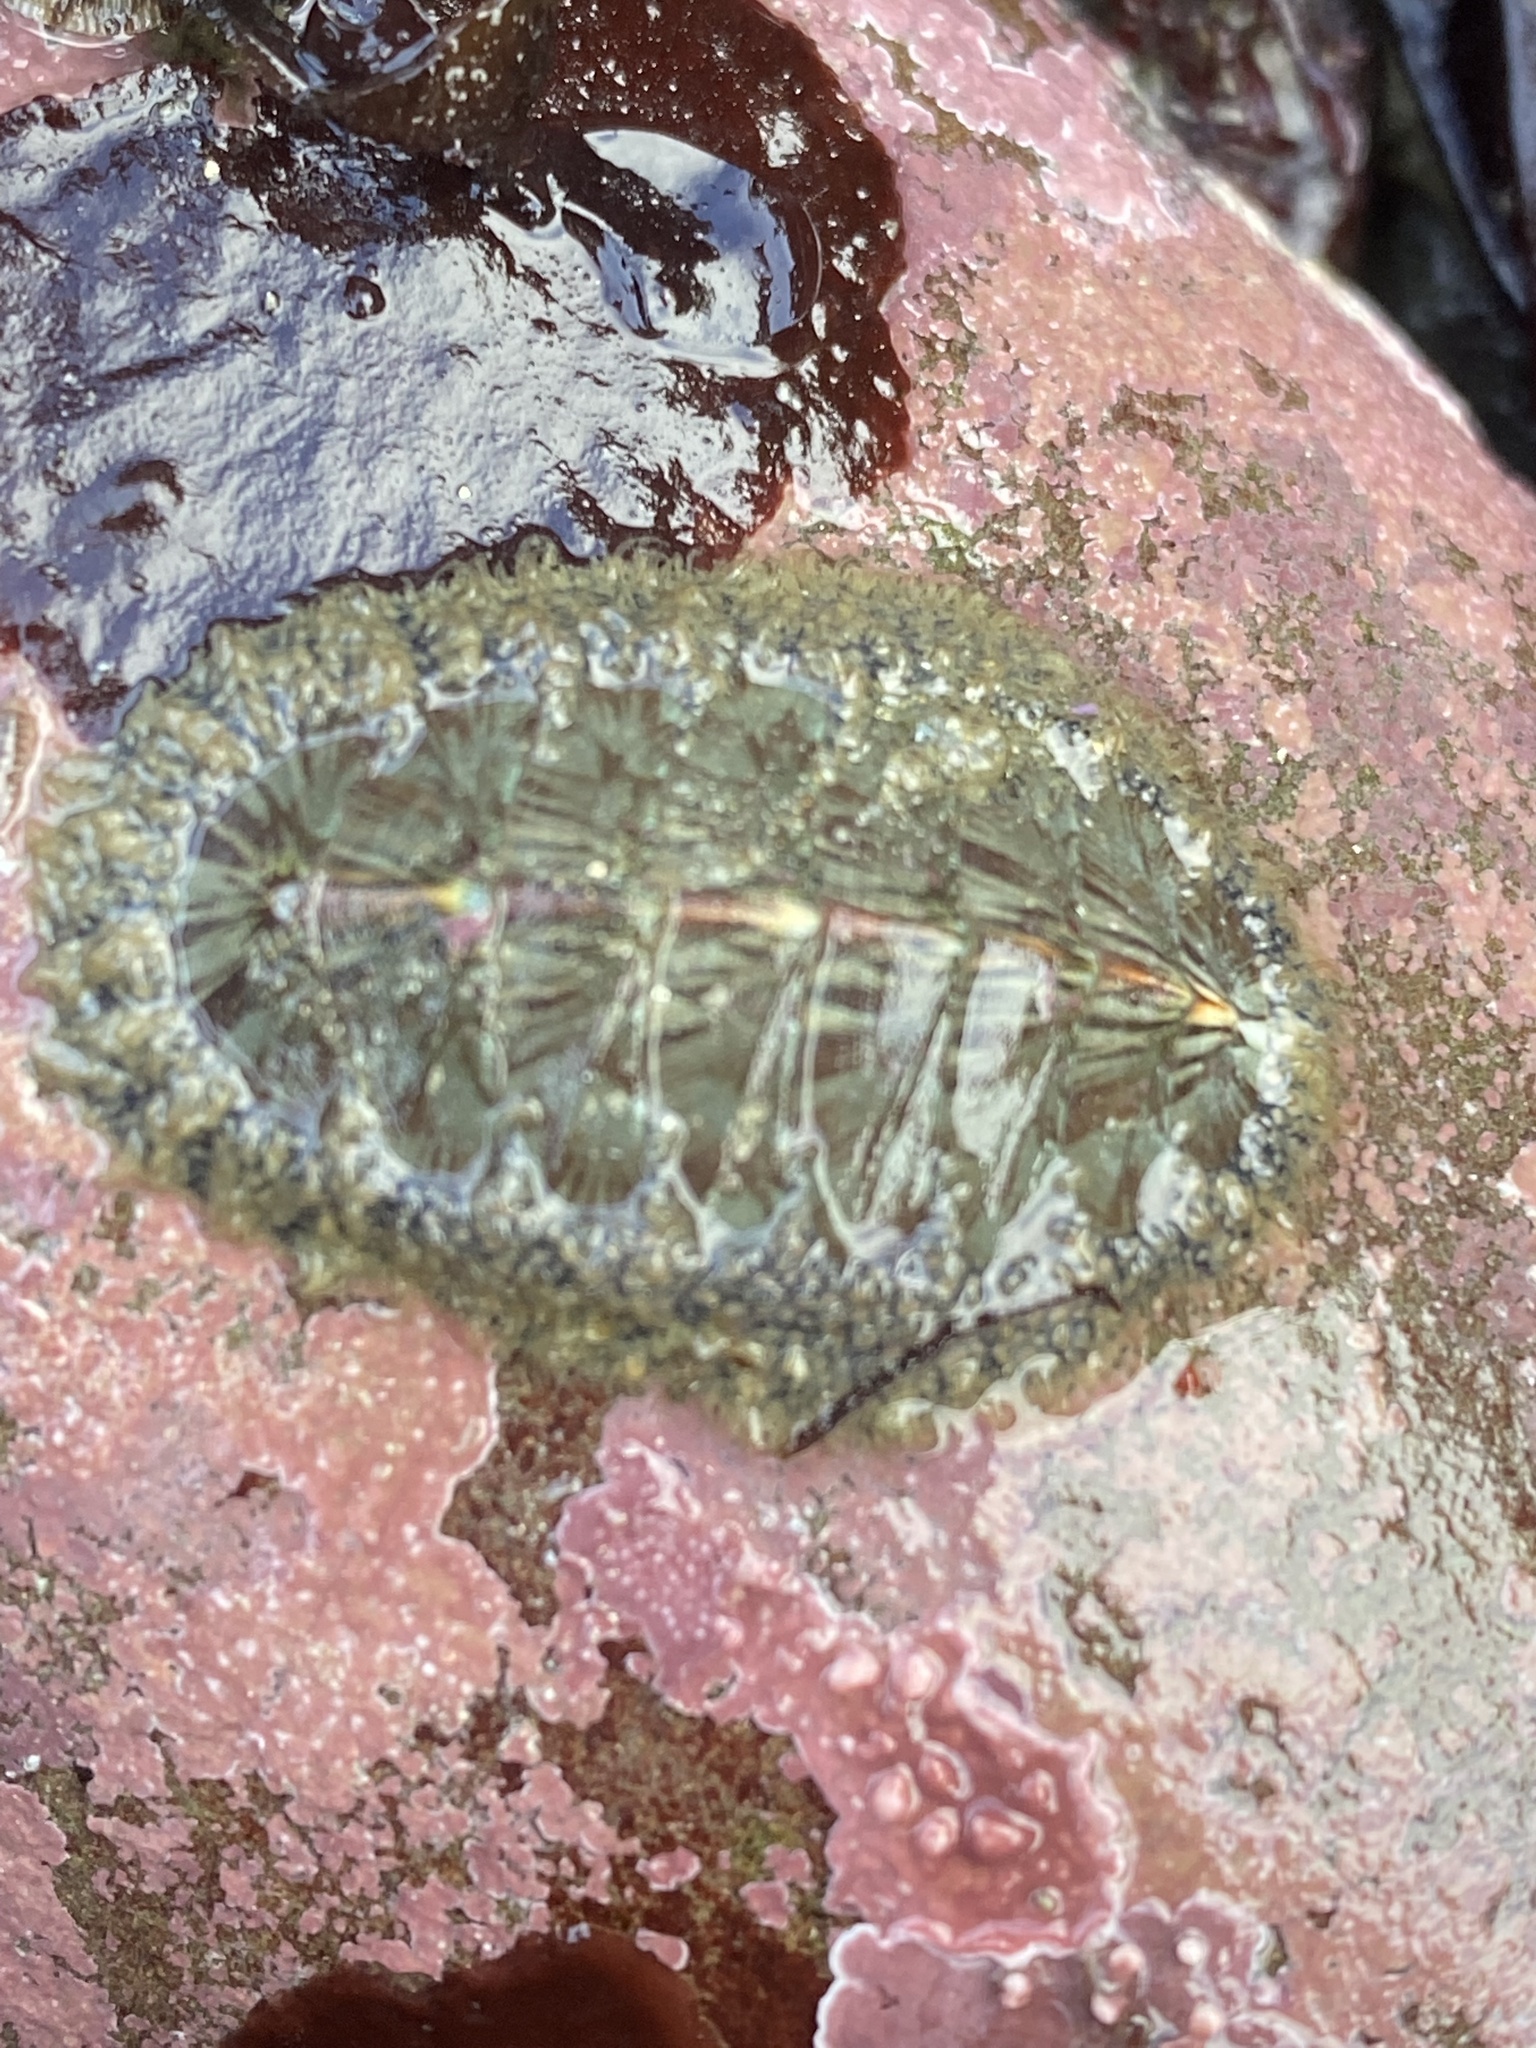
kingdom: Animalia
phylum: Mollusca
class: Polyplacophora
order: Chitonida
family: Mopaliidae
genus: Mopalia
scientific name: Mopalia lignosa
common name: Woody chiton
